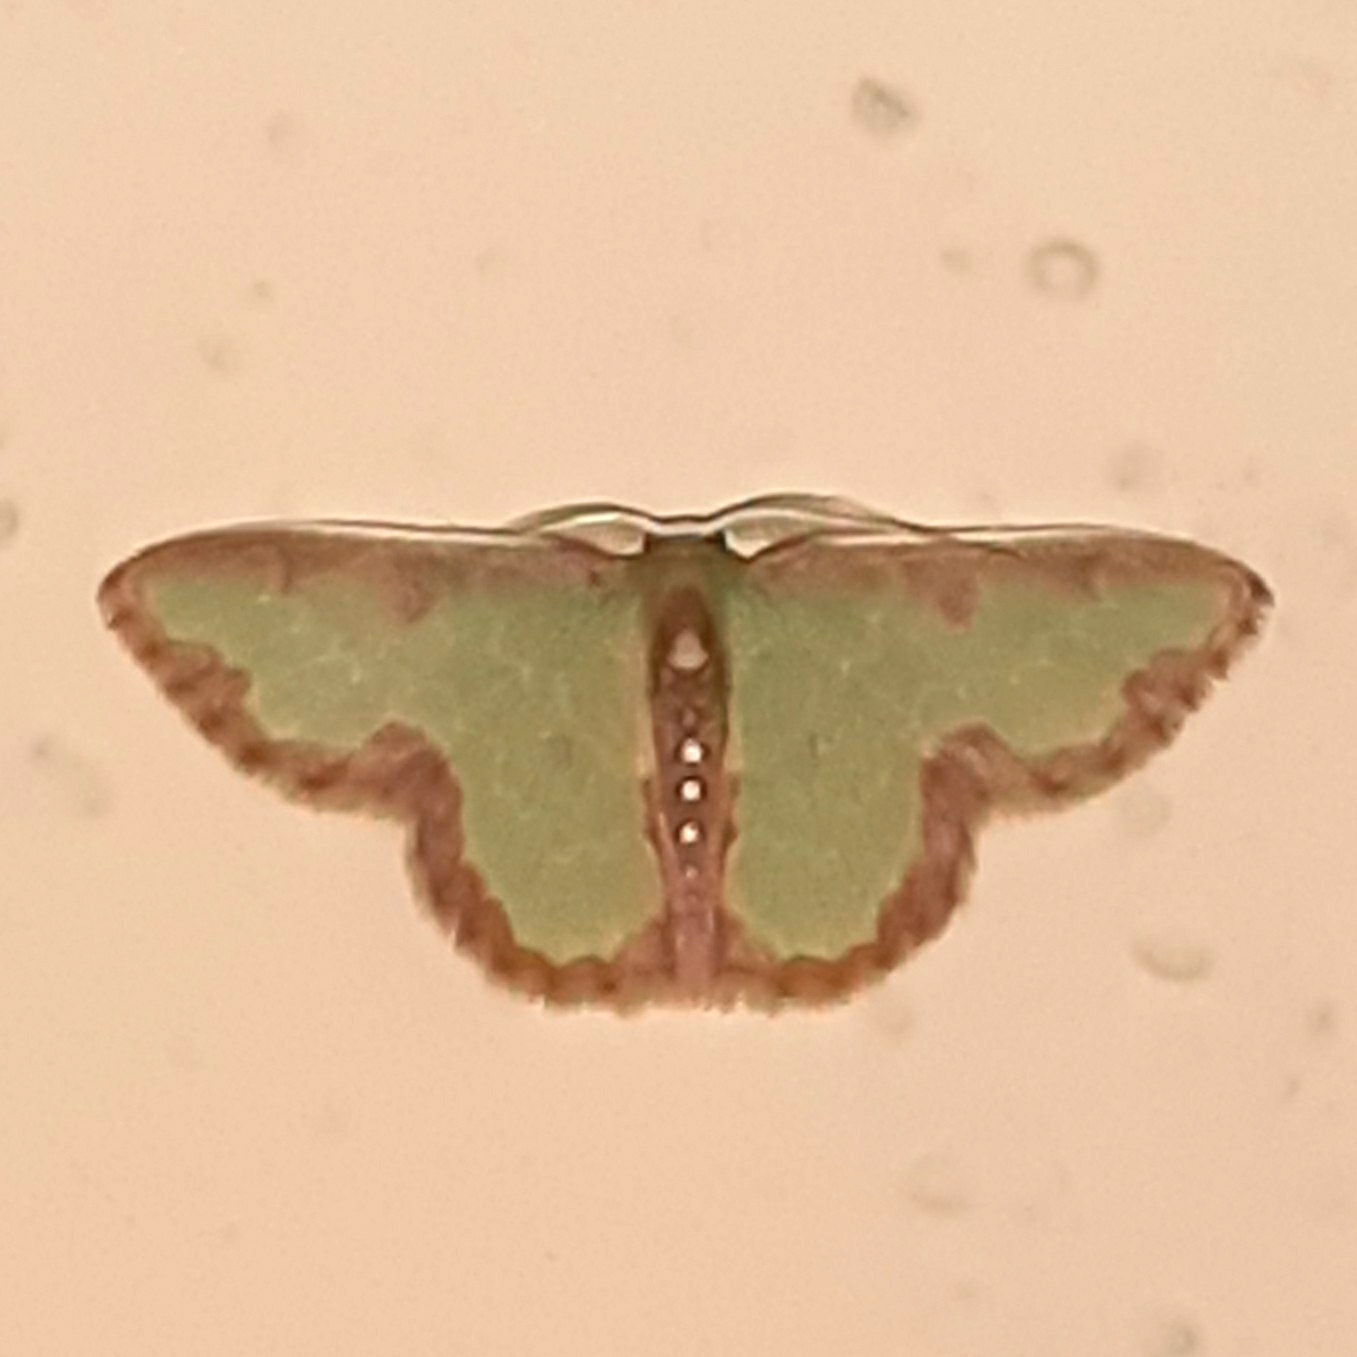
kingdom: Animalia
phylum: Arthropoda
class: Insecta
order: Lepidoptera
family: Geometridae
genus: Synchlora
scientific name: Synchlora dependens
